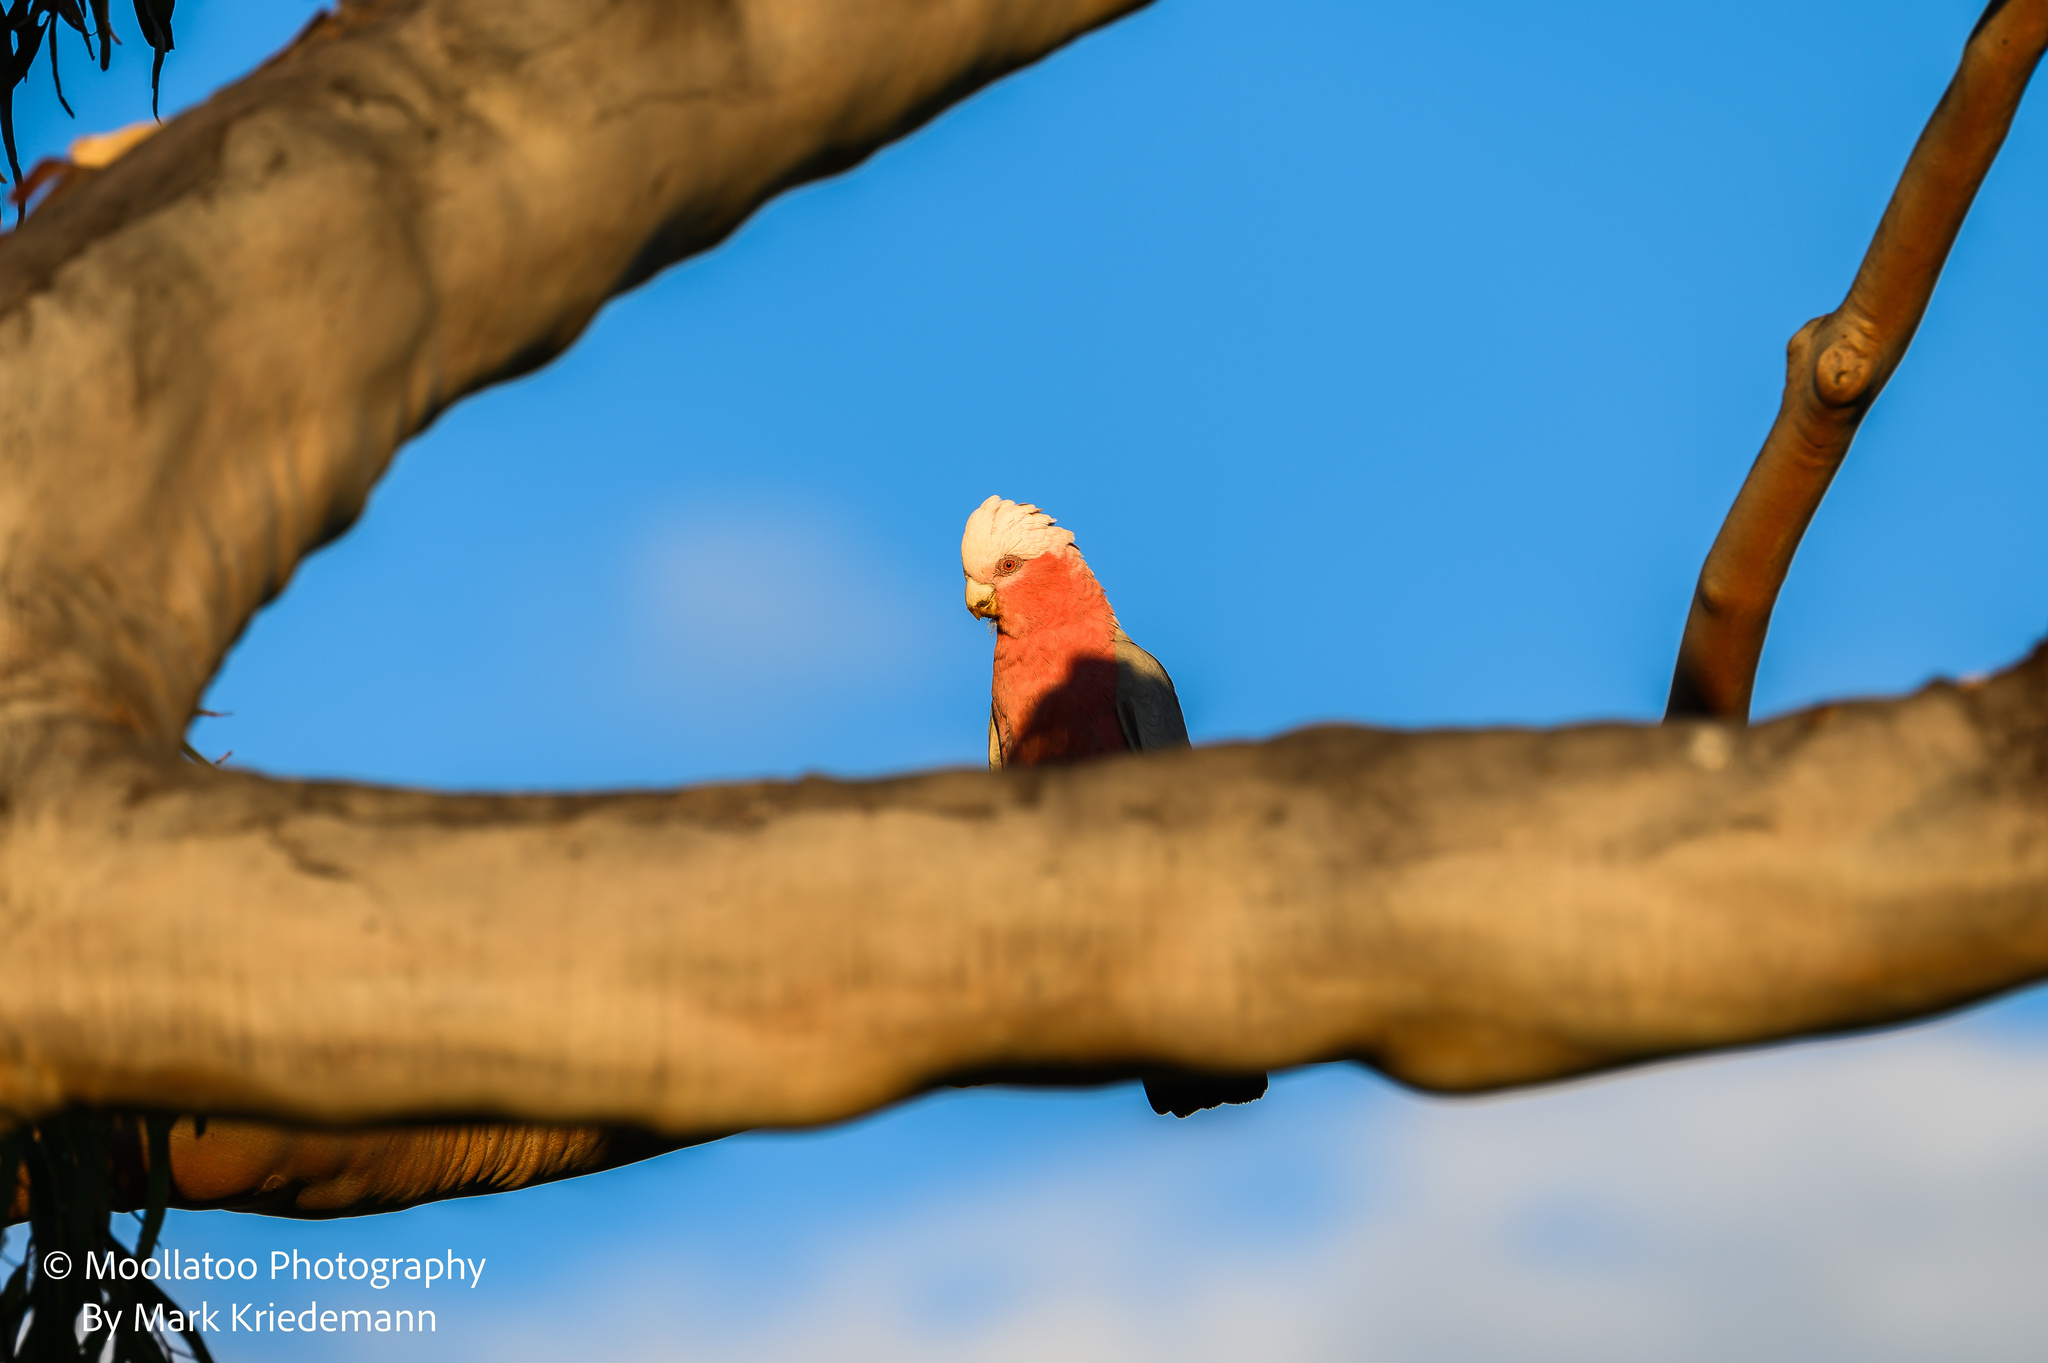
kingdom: Animalia
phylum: Chordata
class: Aves
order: Psittaciformes
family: Psittacidae
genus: Eolophus
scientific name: Eolophus roseicapilla
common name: Galah
